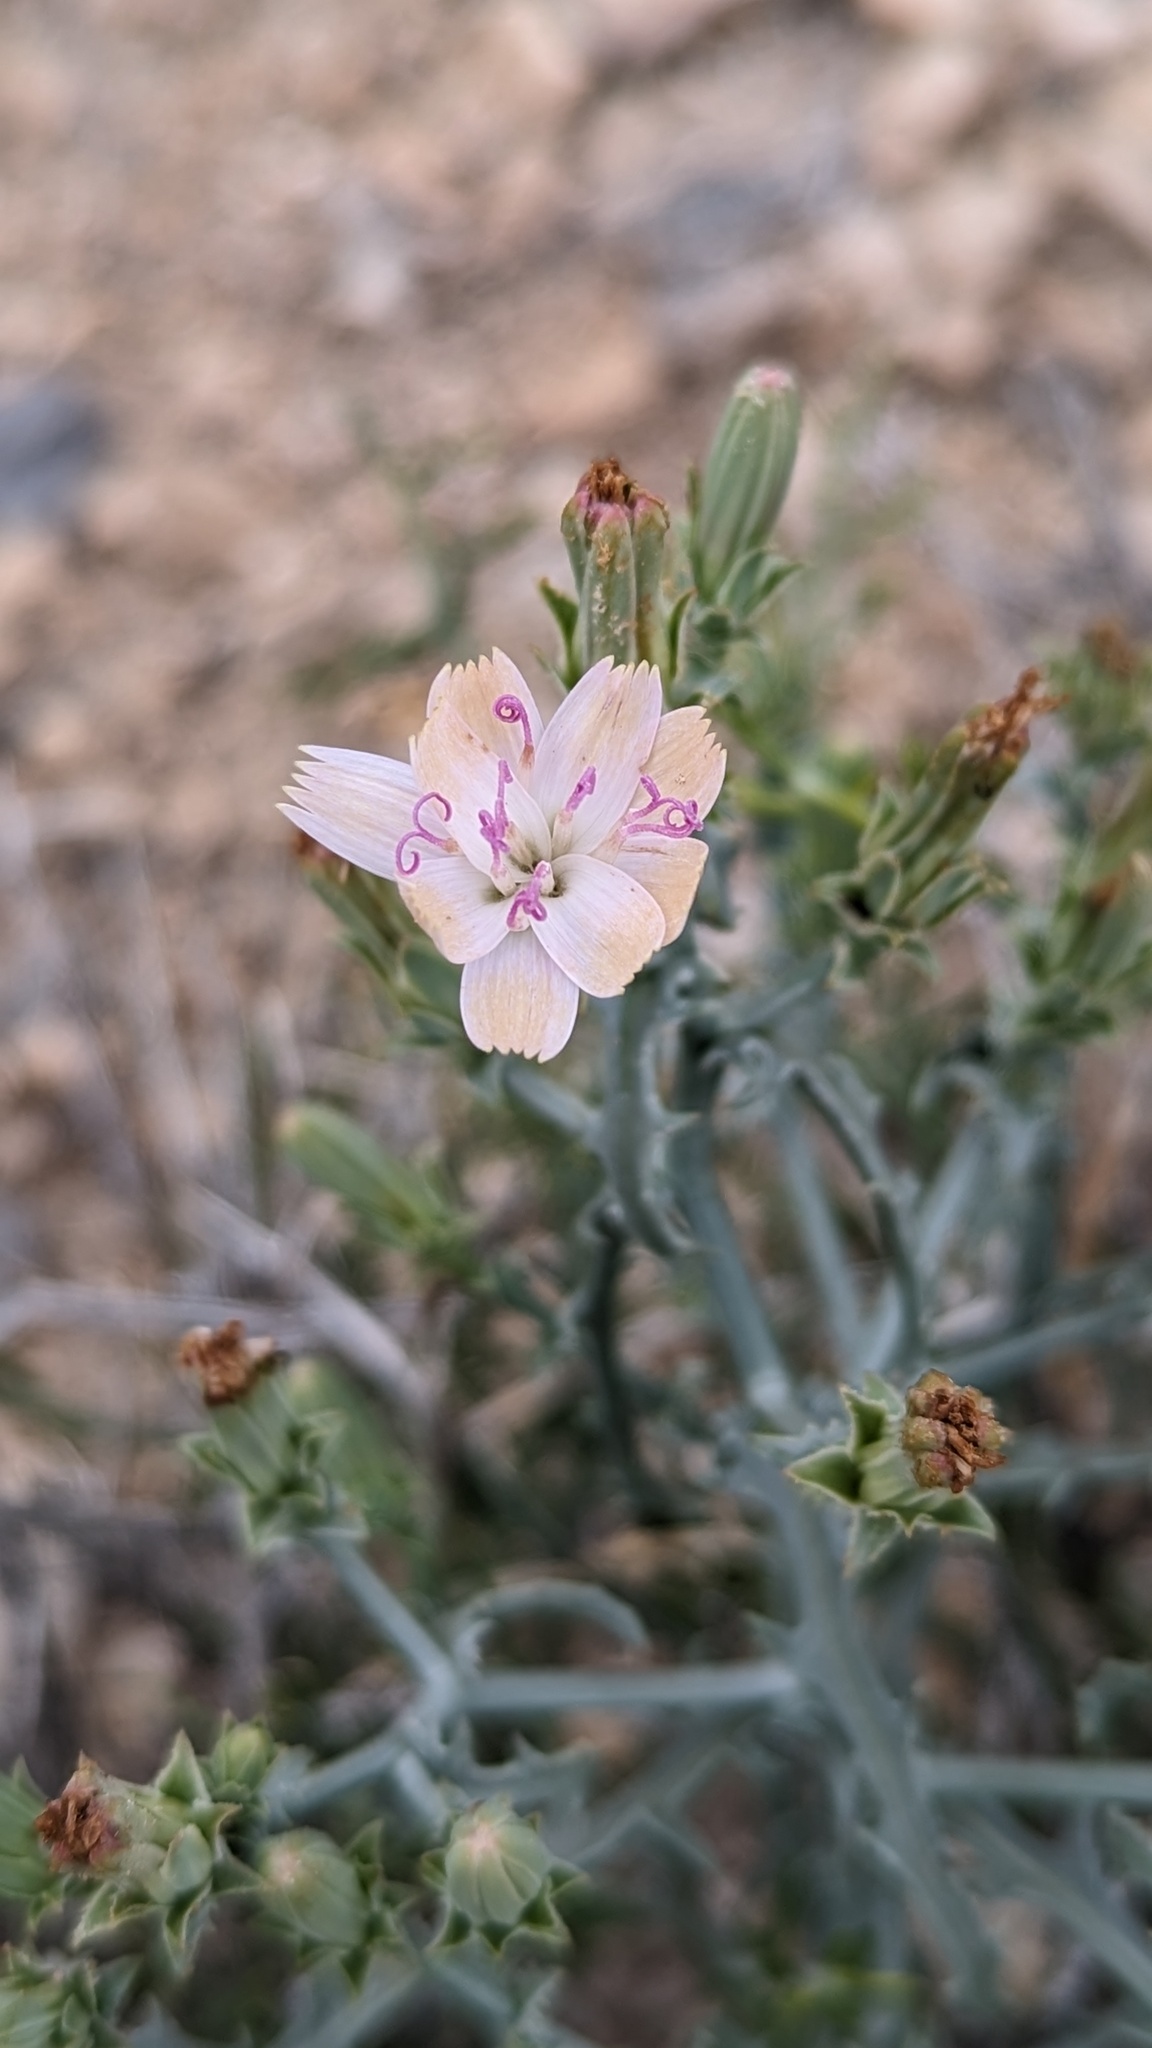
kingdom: Plantae
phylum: Tracheophyta
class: Magnoliopsida
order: Asterales
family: Asteraceae
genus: Stephanomeria
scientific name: Stephanomeria parryi
